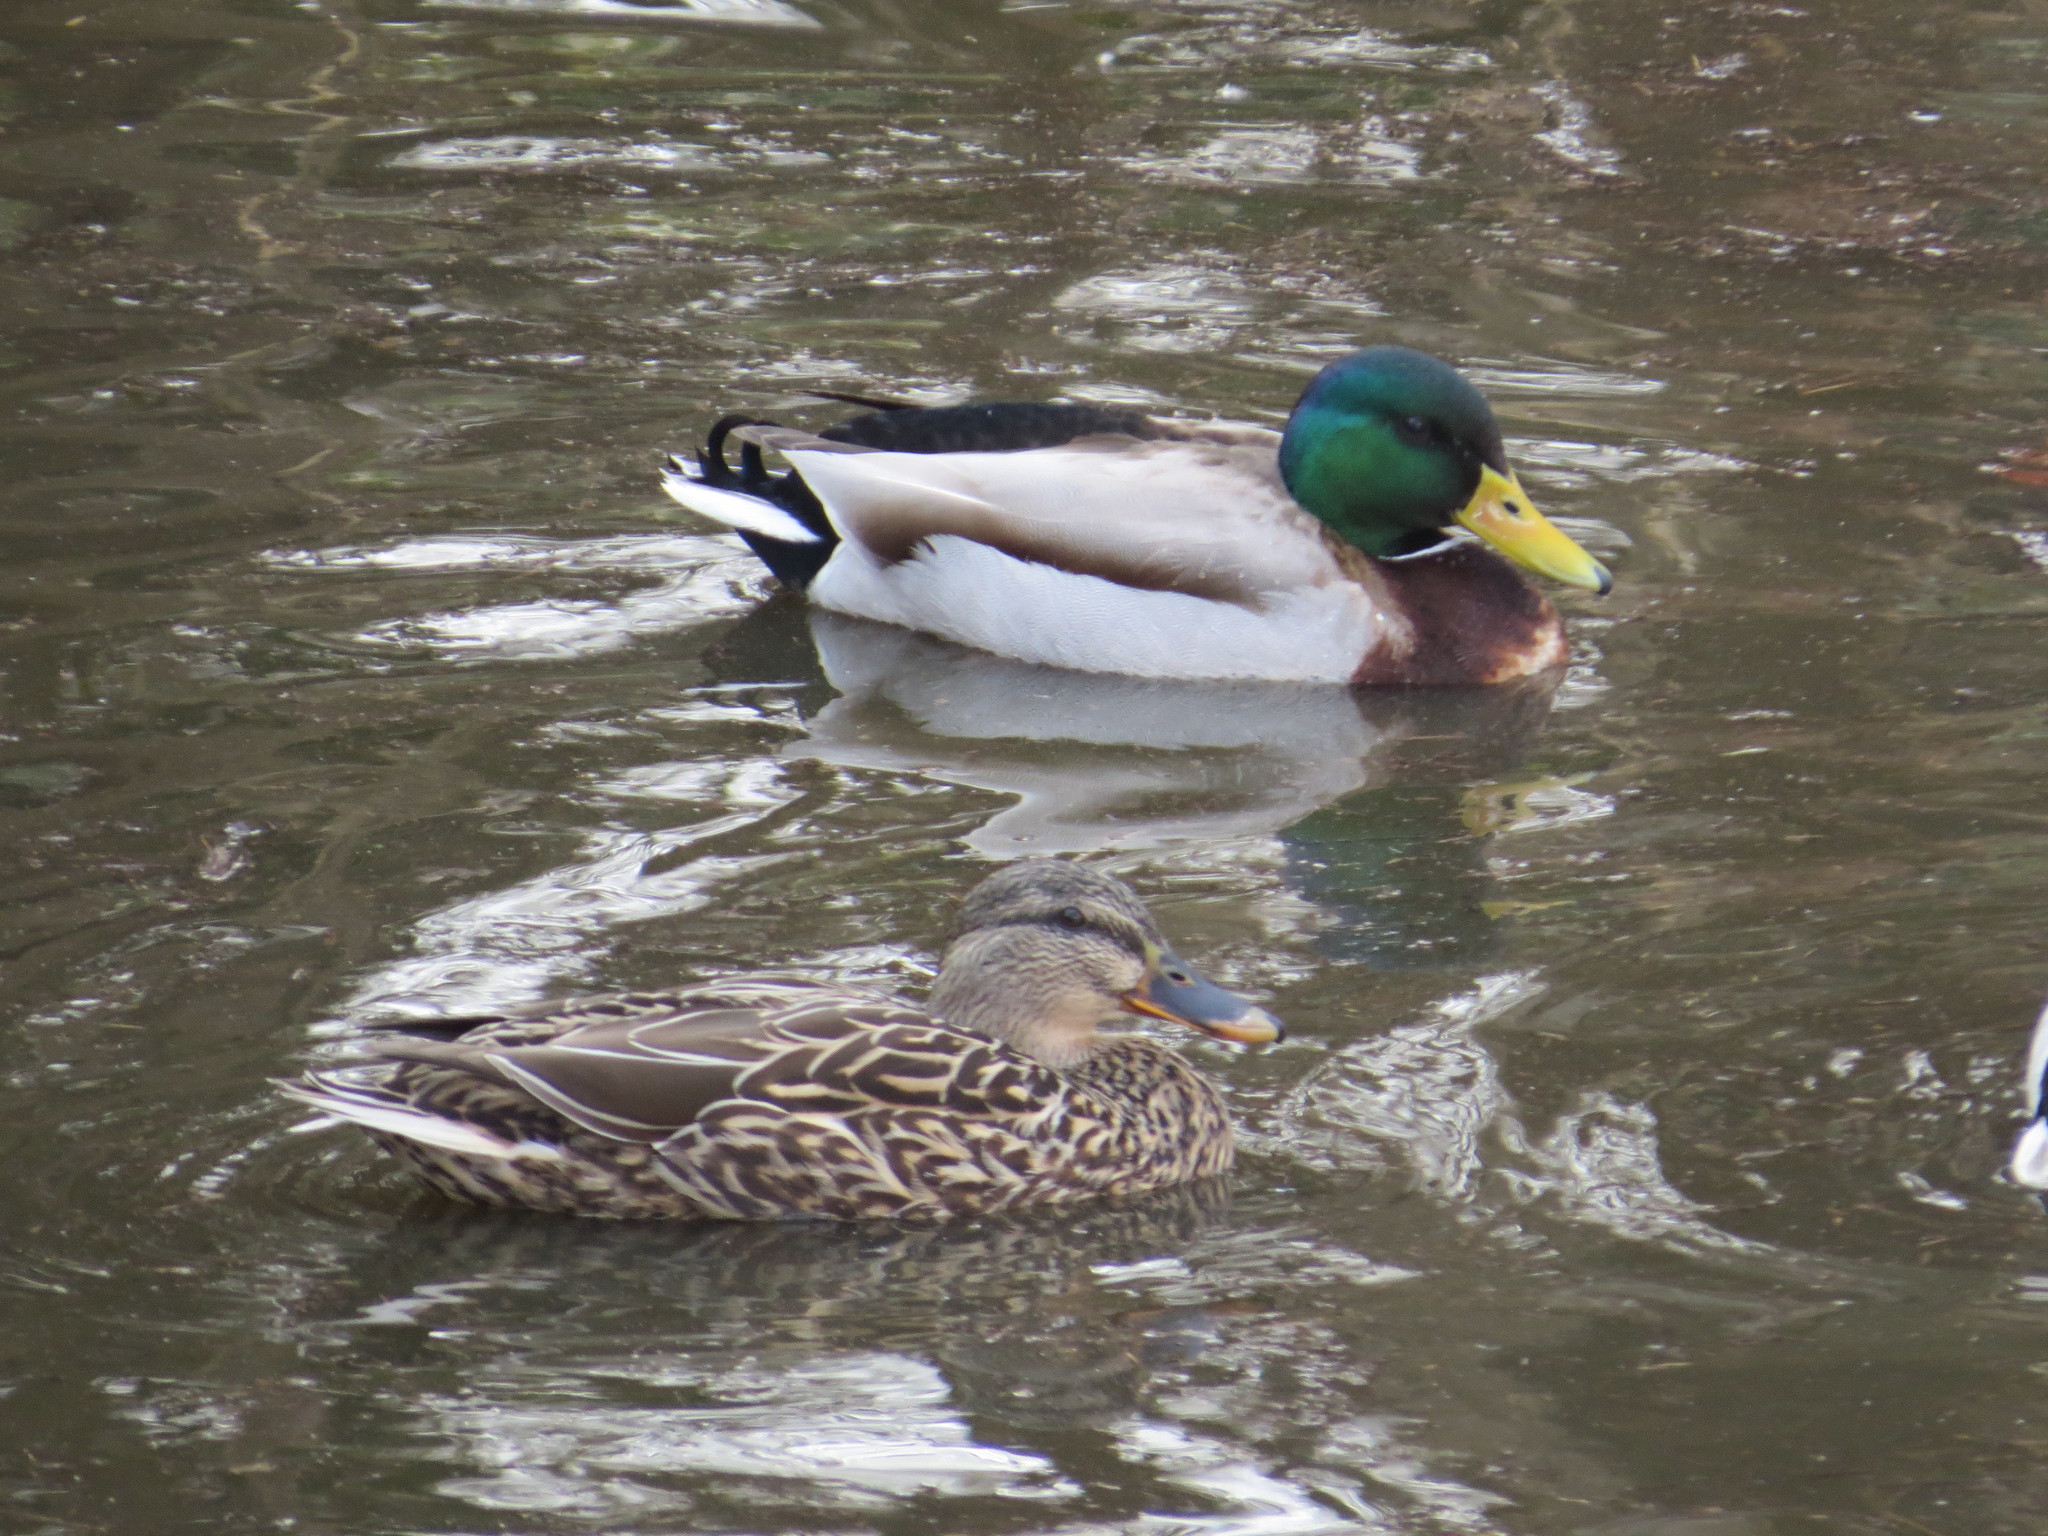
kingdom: Animalia
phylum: Chordata
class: Aves
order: Anseriformes
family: Anatidae
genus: Anas
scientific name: Anas platyrhynchos
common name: Mallard
